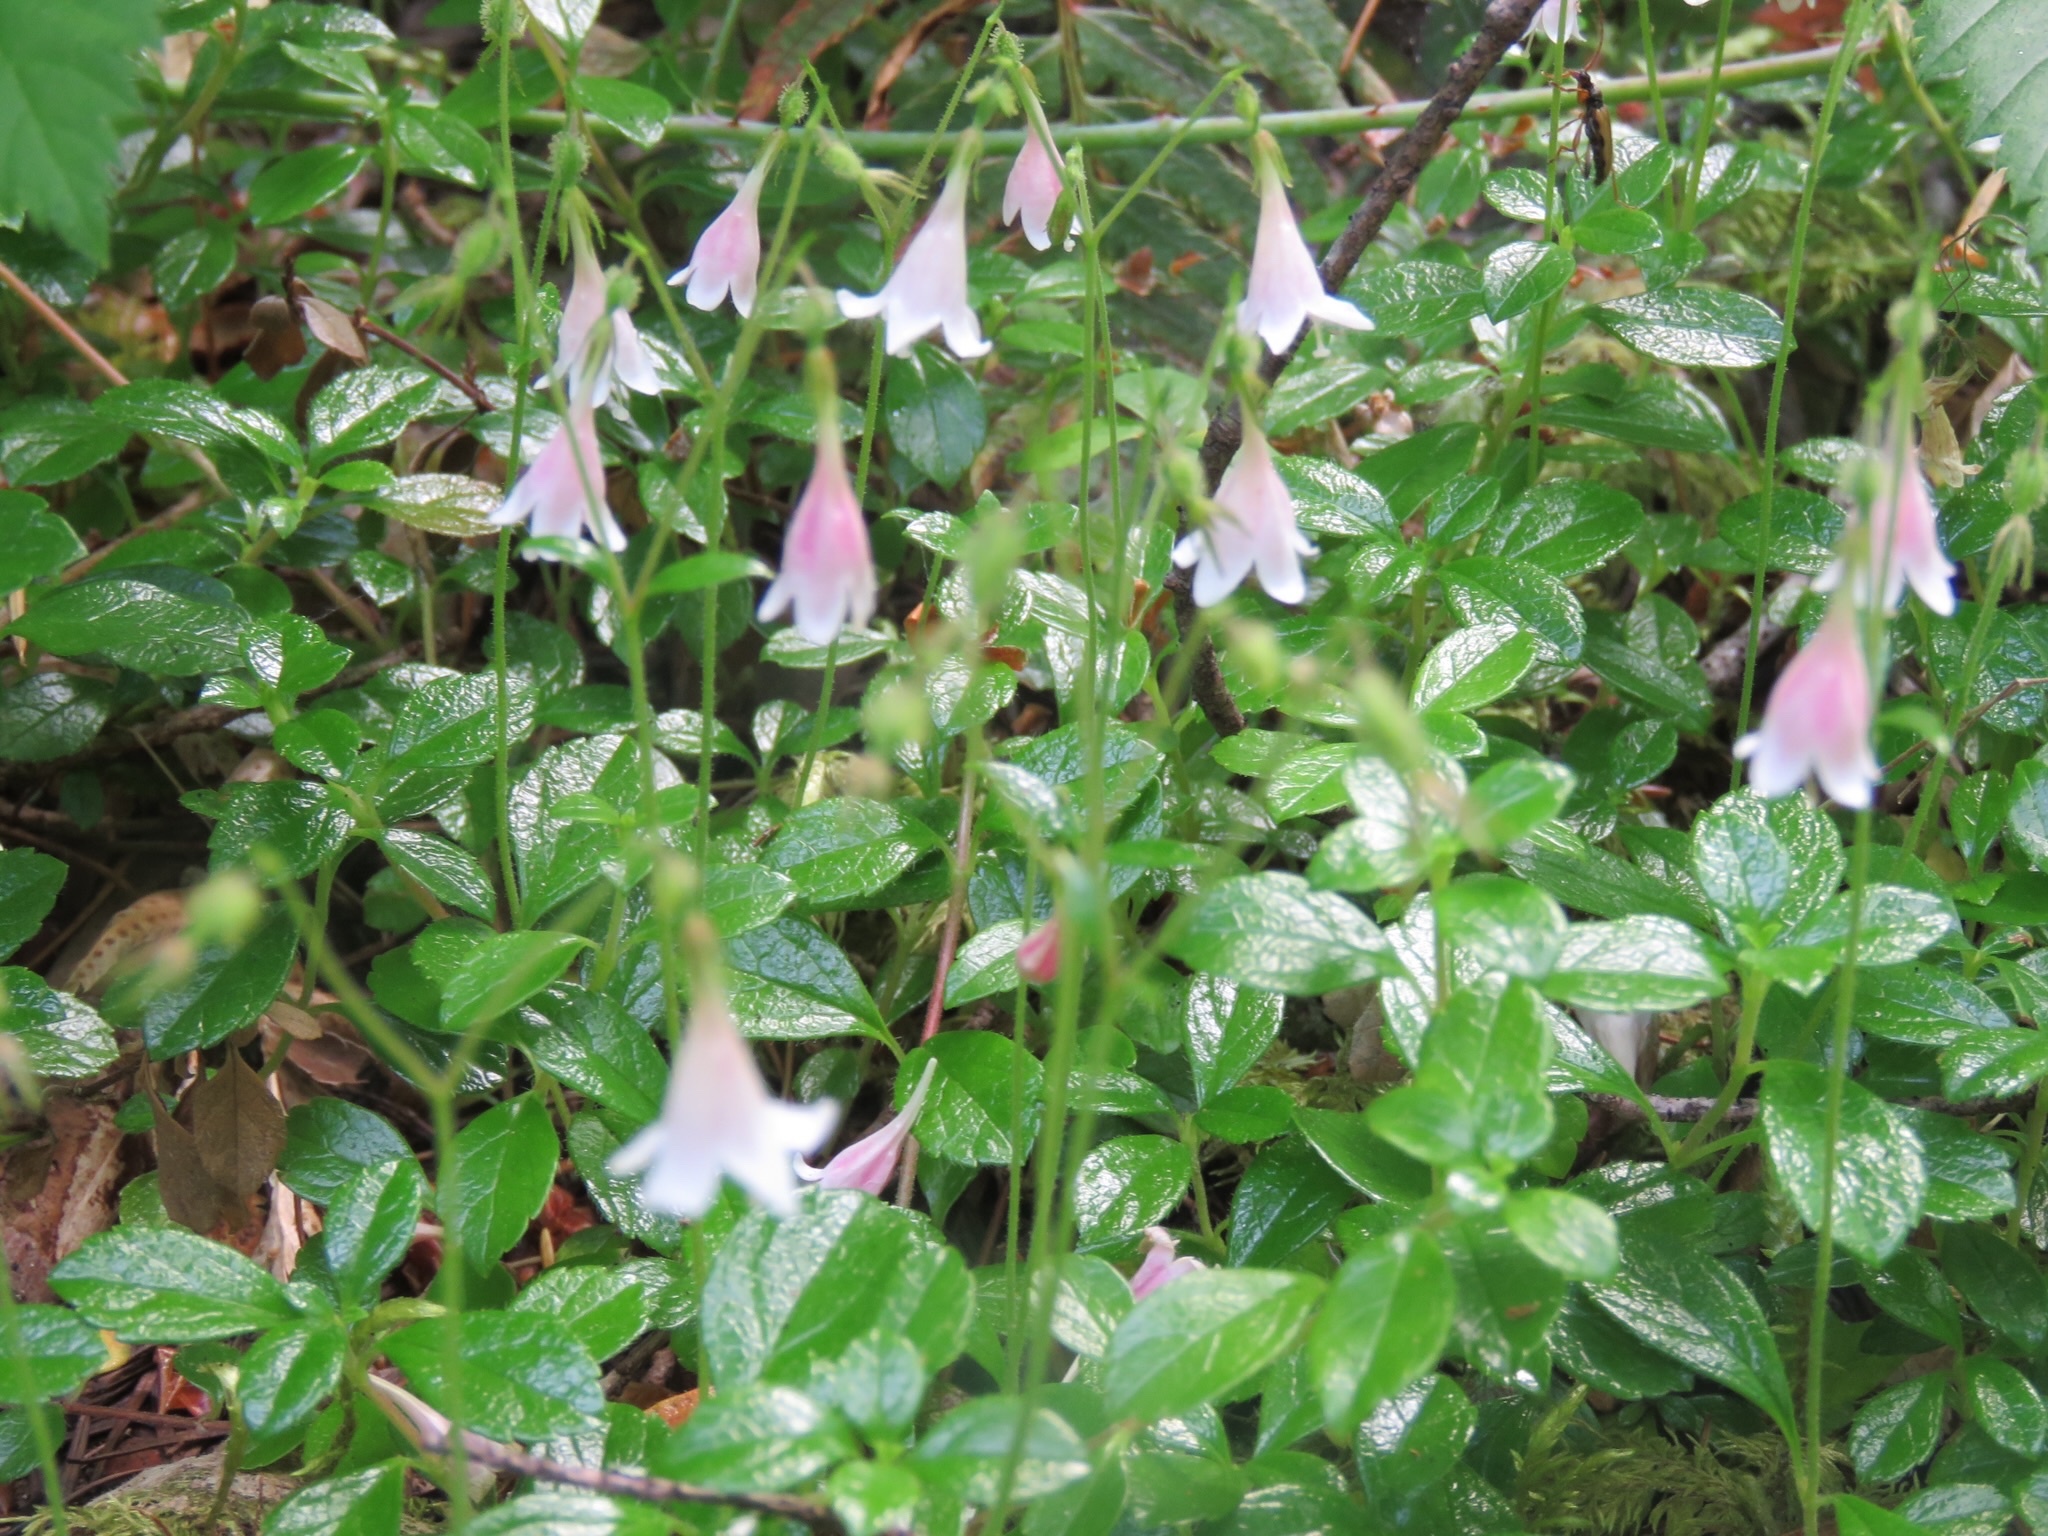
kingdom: Plantae
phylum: Tracheophyta
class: Magnoliopsida
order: Dipsacales
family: Caprifoliaceae
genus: Linnaea
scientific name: Linnaea borealis
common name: Twinflower
